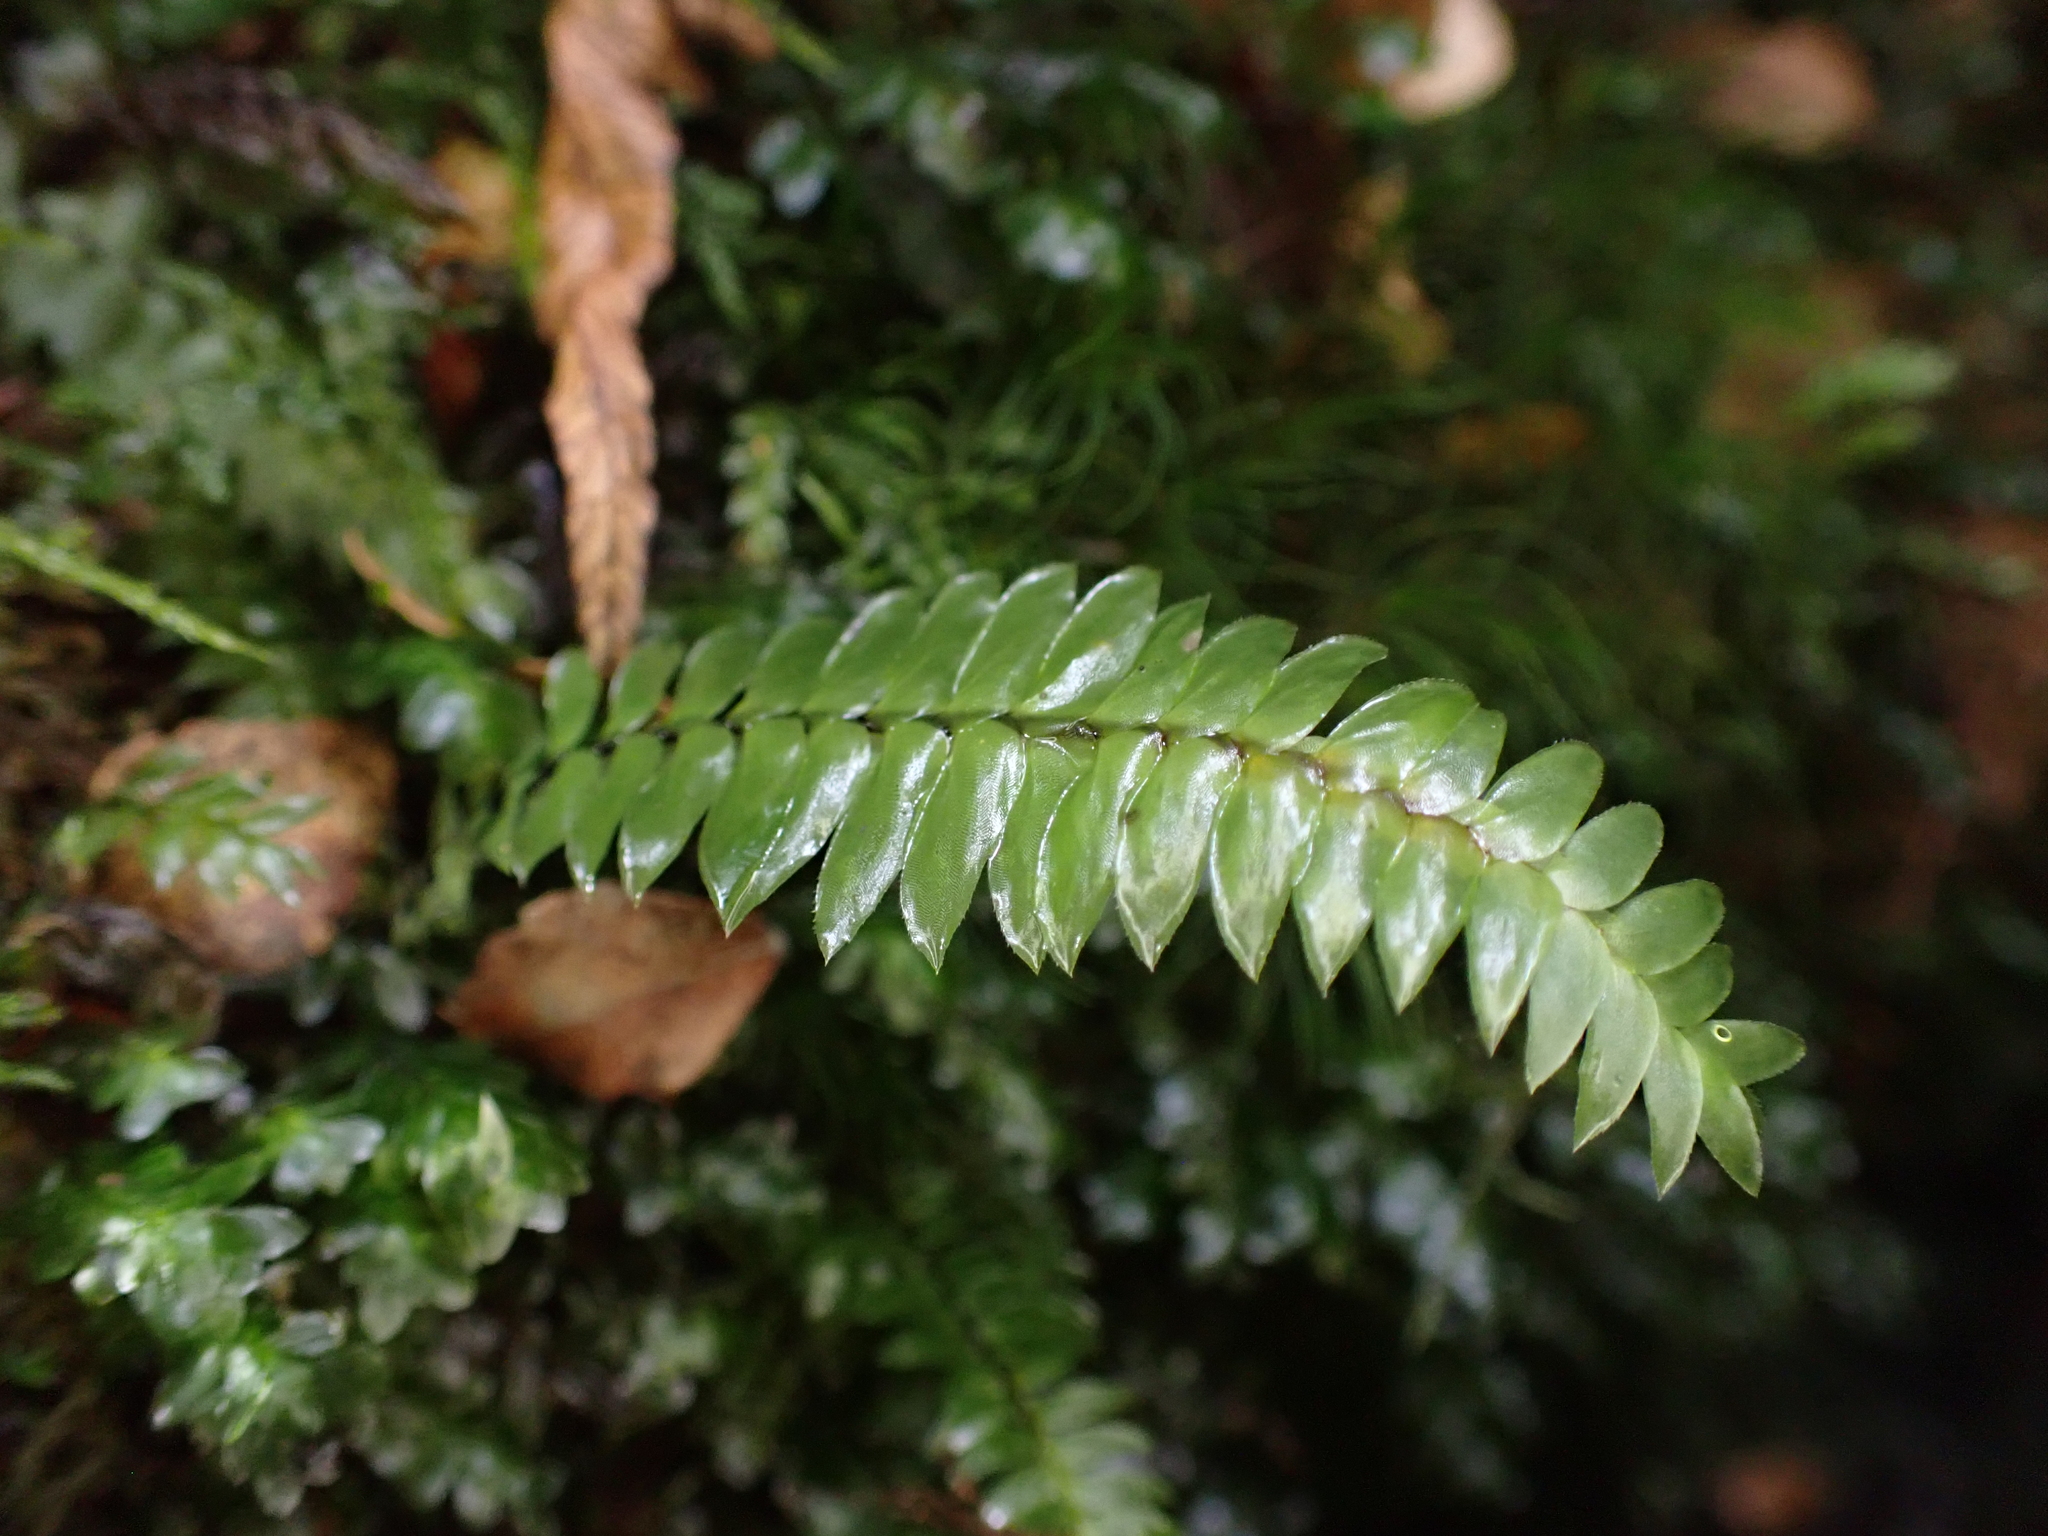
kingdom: Plantae
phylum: Bryophyta
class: Bryopsida
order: Hypopterygiales
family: Hypopterygiaceae
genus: Cyathophorum
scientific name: Cyathophorum bulbosum
